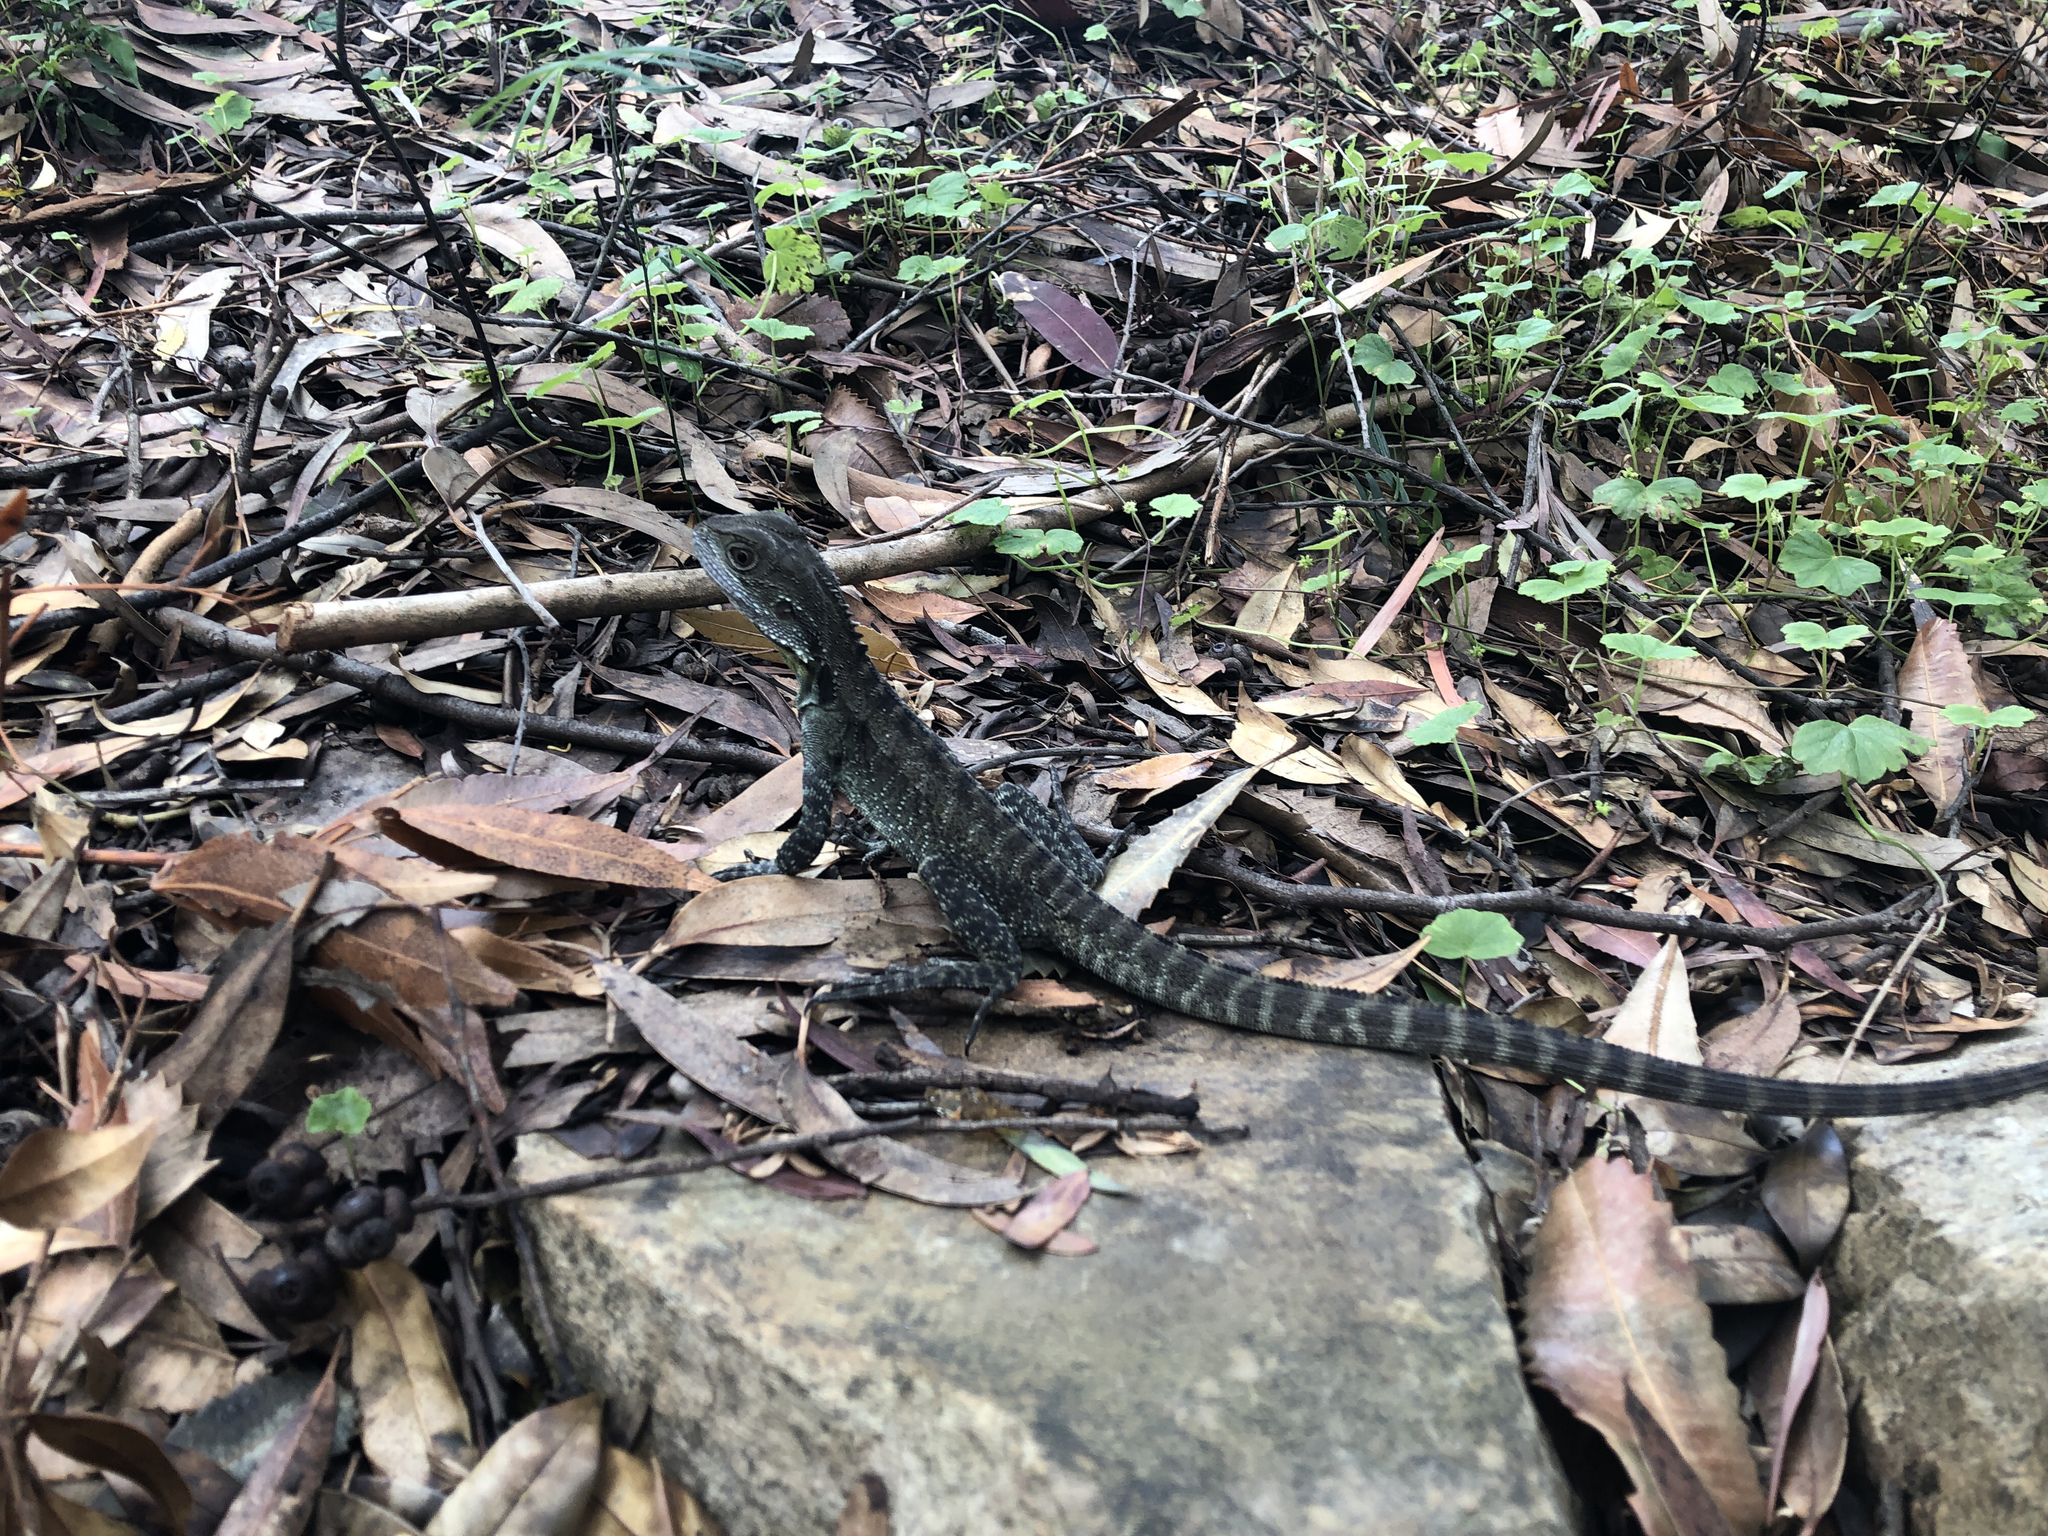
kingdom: Animalia
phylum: Chordata
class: Squamata
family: Agamidae
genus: Intellagama
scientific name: Intellagama lesueurii
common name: Eastern water dragon
